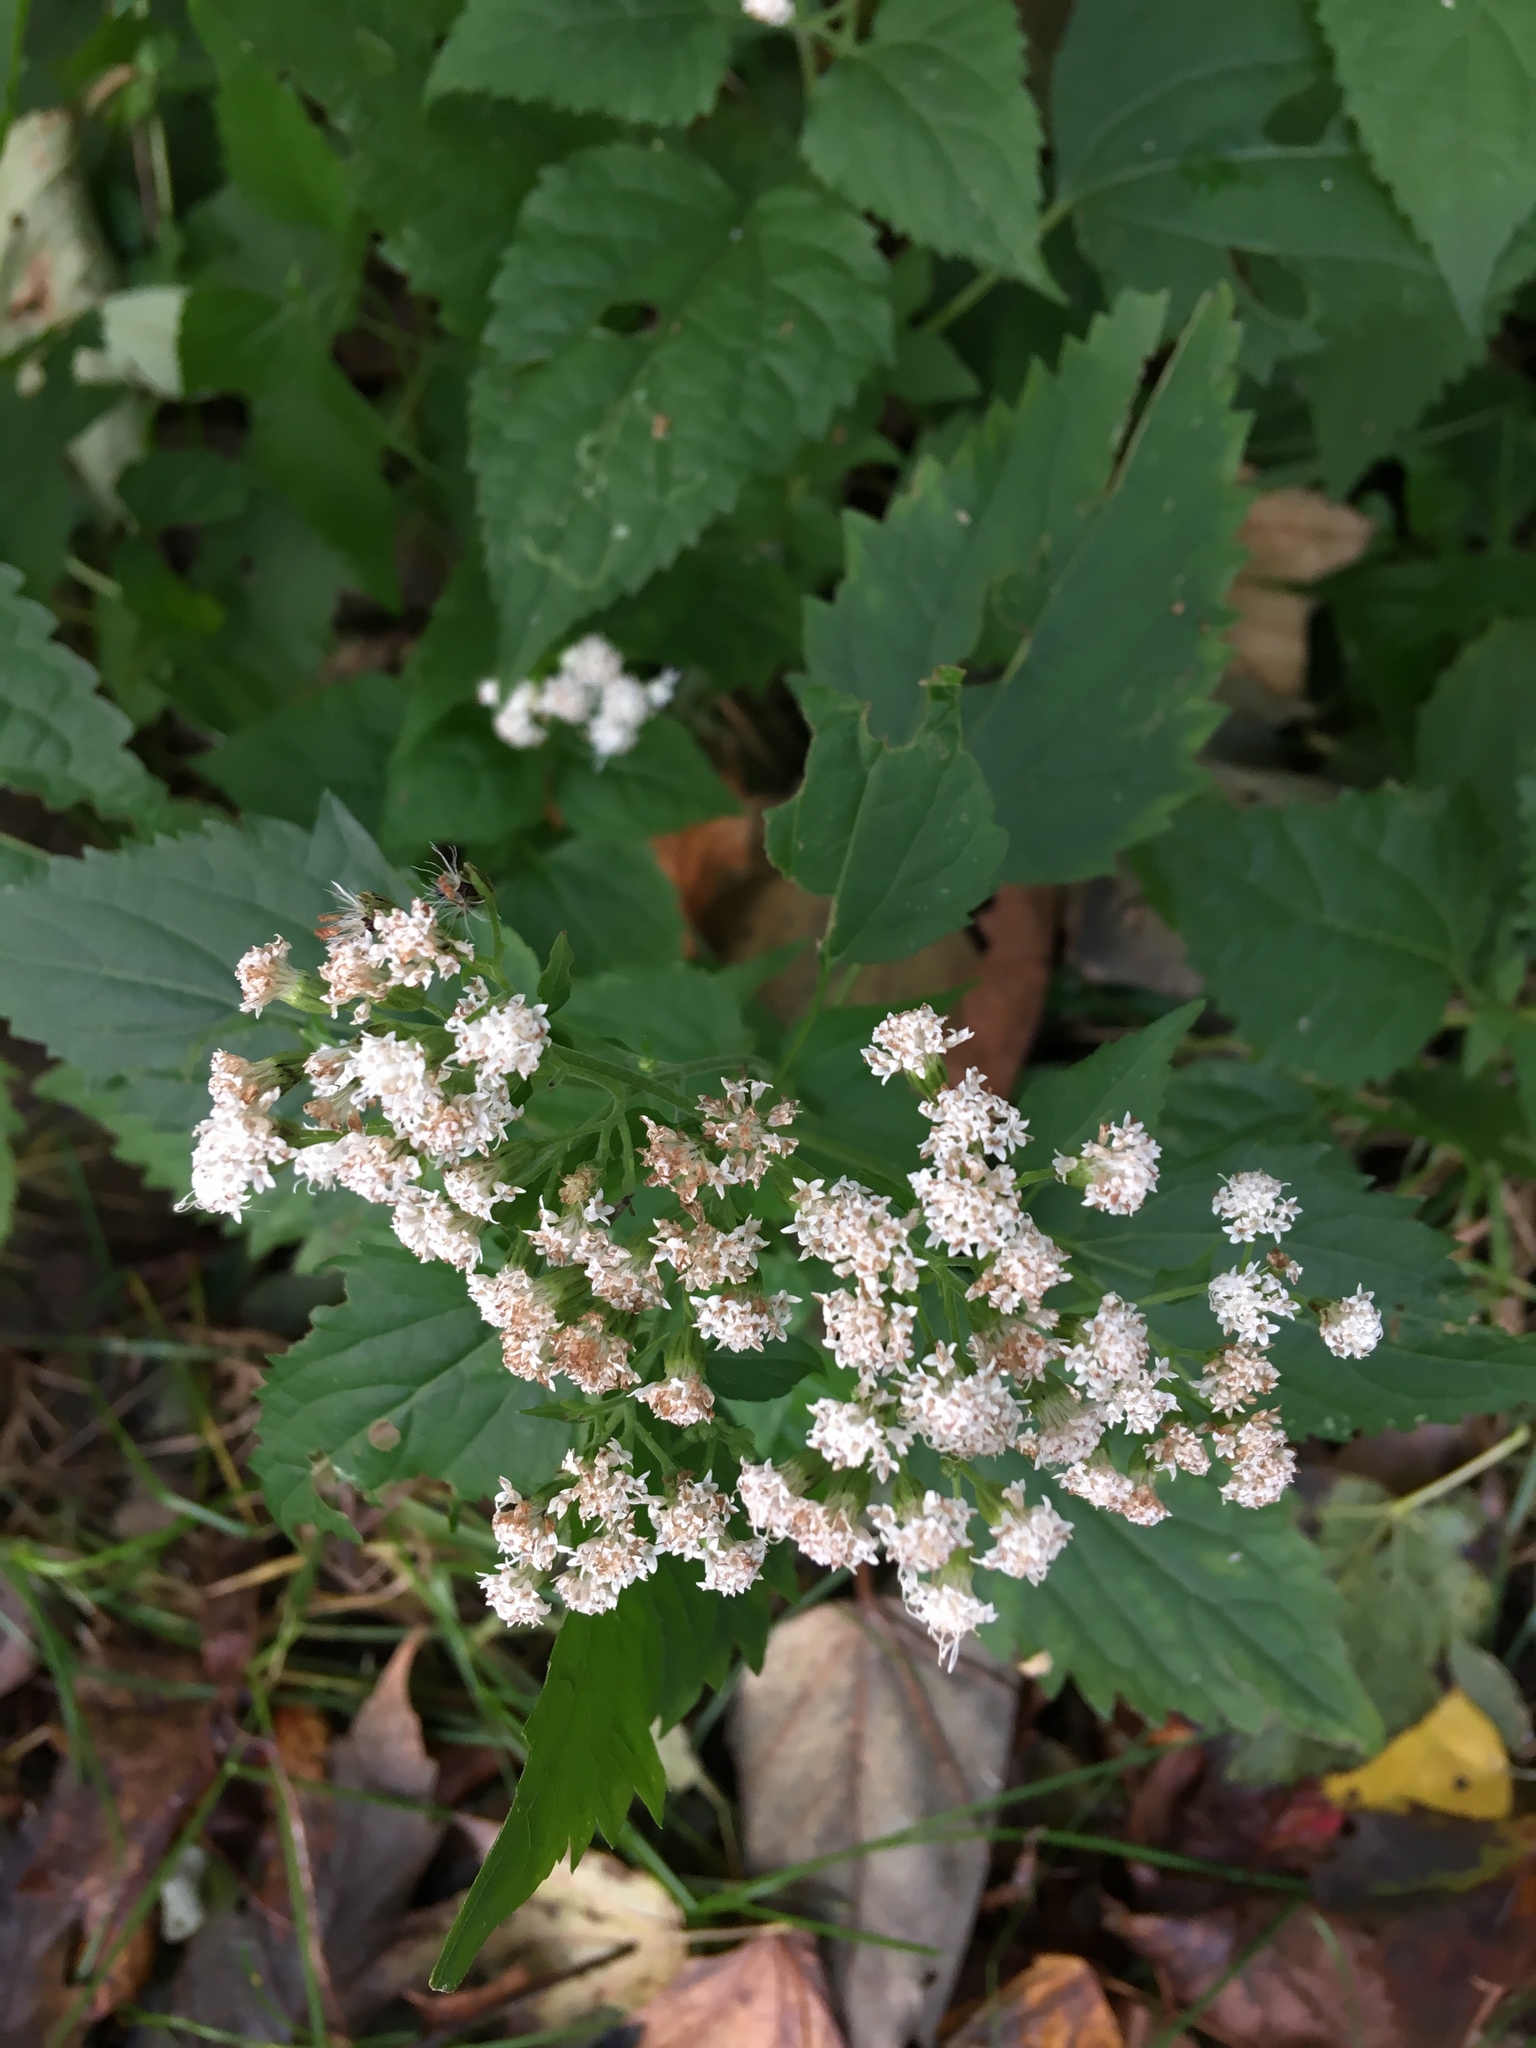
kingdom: Plantae
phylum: Tracheophyta
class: Magnoliopsida
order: Asterales
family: Asteraceae
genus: Ageratina
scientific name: Ageratina altissima
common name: White snakeroot
